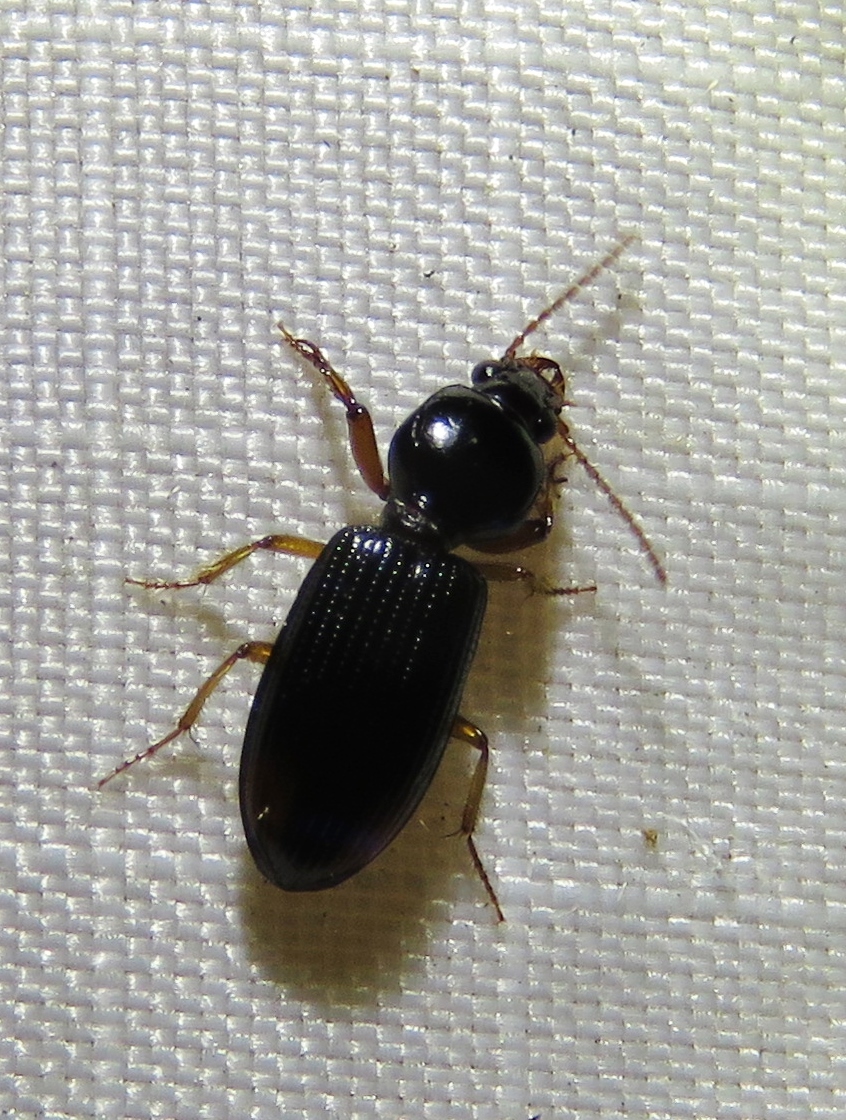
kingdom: Animalia
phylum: Arthropoda
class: Insecta
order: Coleoptera
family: Carabidae
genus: Aspidoglossa
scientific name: Aspidoglossa subangulata
